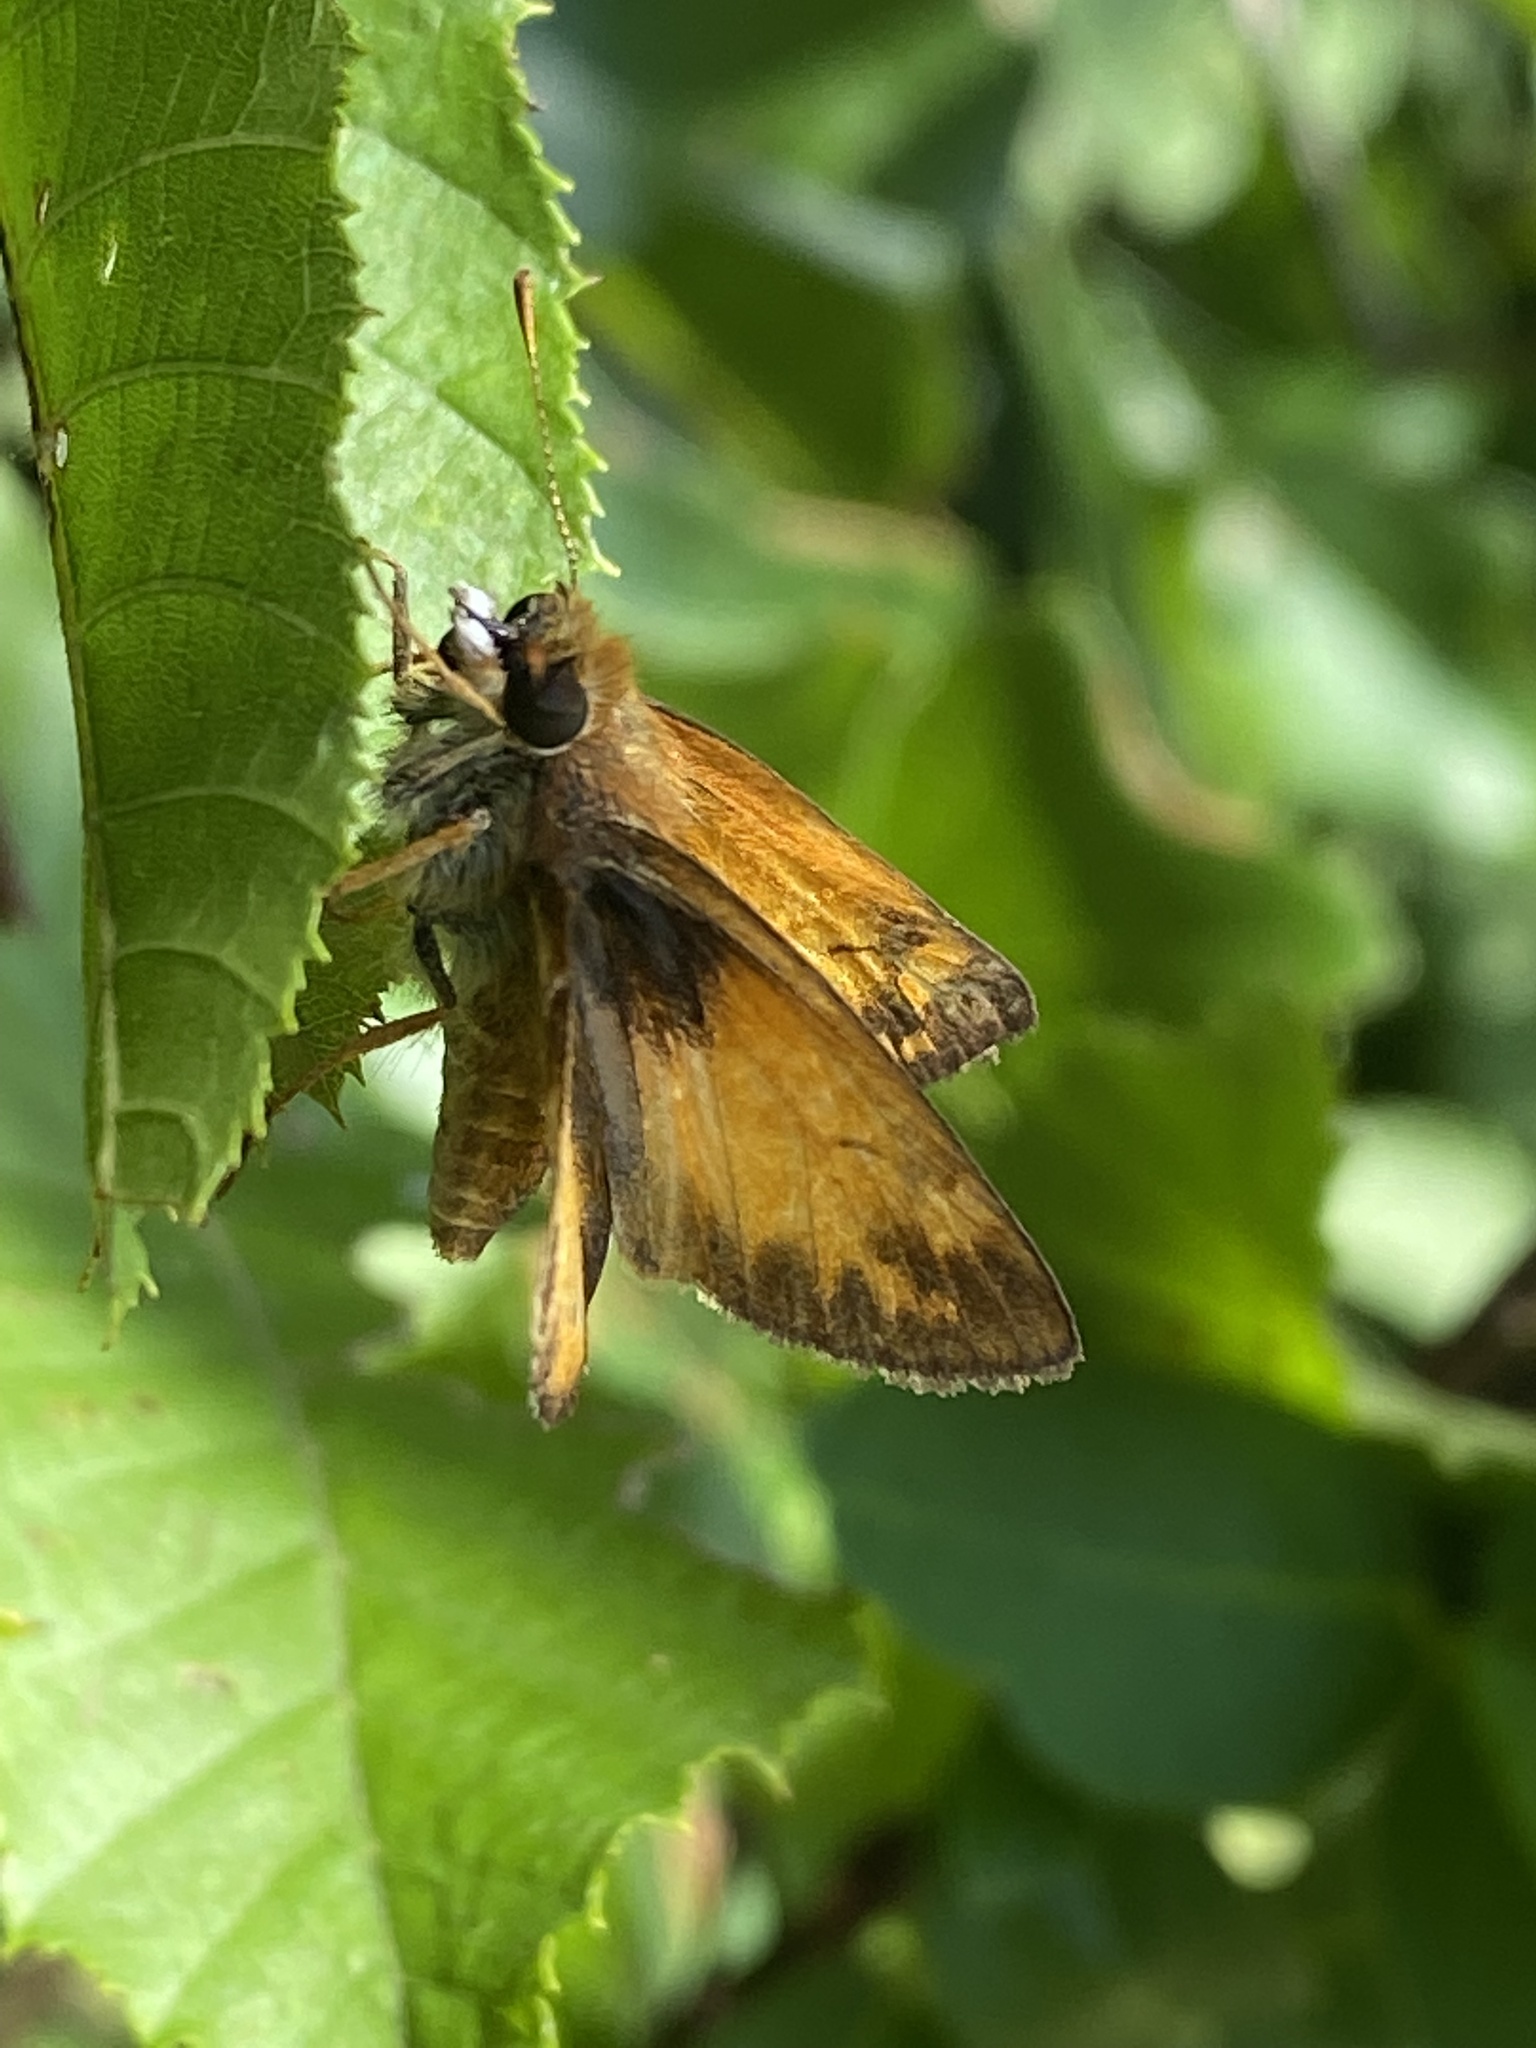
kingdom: Animalia
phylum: Arthropoda
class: Insecta
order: Lepidoptera
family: Hesperiidae
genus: Lon
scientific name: Lon zabulon
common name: Zabulon skipper
